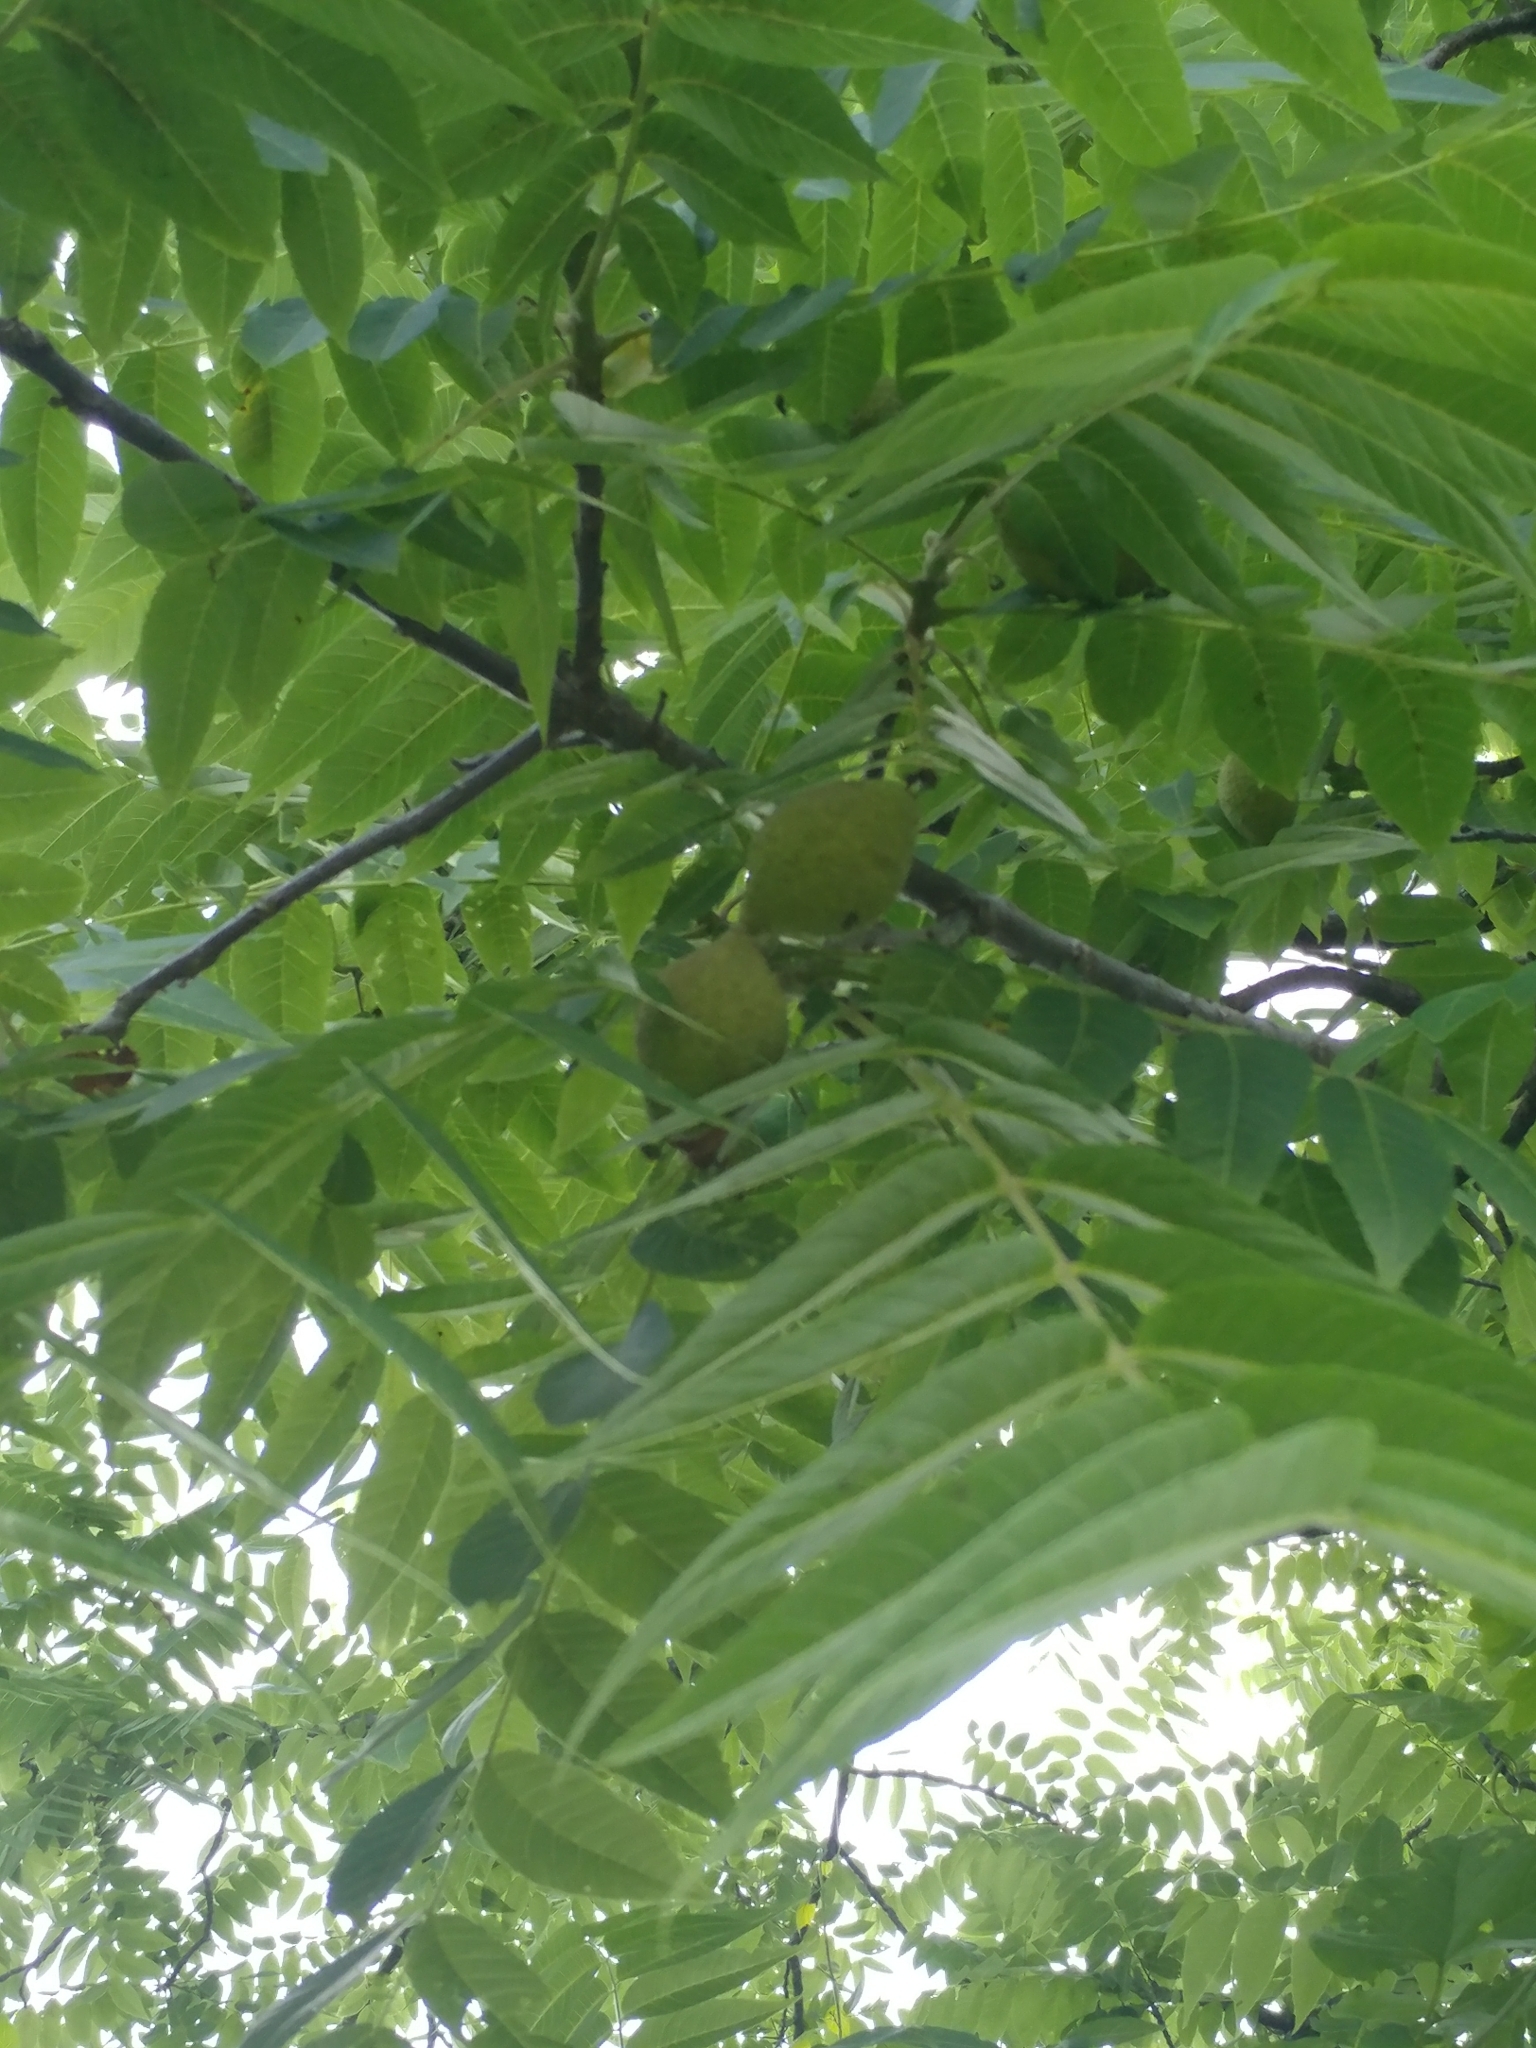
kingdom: Plantae
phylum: Tracheophyta
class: Magnoliopsida
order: Fagales
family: Juglandaceae
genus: Juglans
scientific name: Juglans nigra
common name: Black walnut
